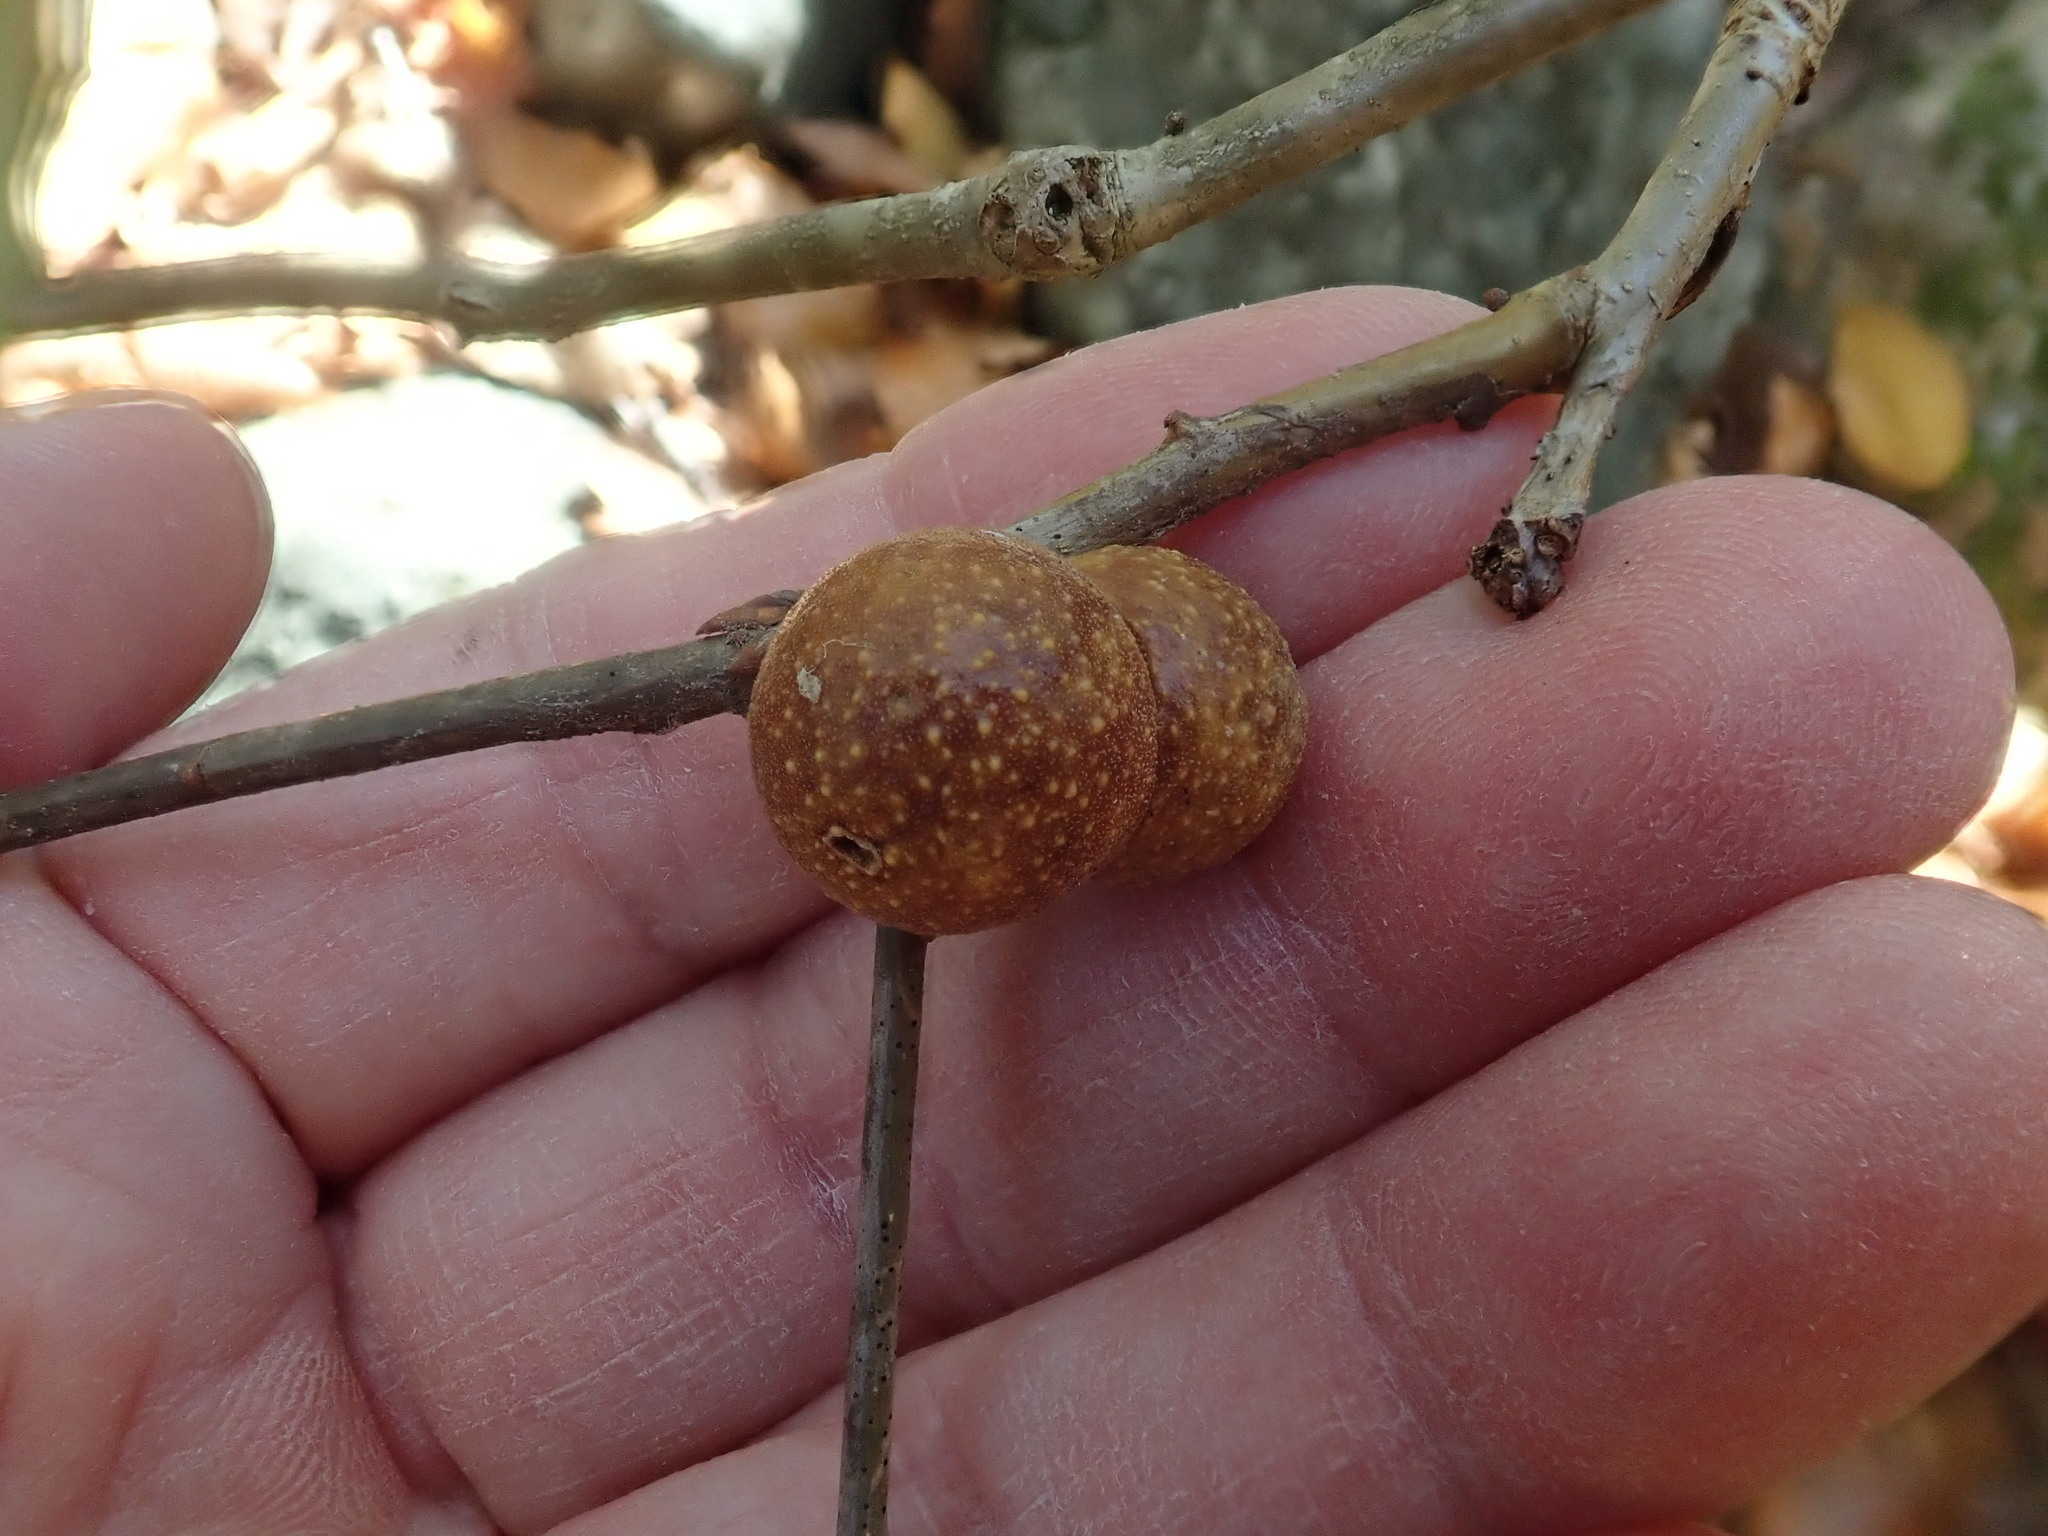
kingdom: Animalia
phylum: Arthropoda
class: Insecta
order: Hymenoptera
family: Cynipidae
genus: Disholcaspis
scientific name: Disholcaspis quercusglobulus
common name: Round bullet gall wasp
